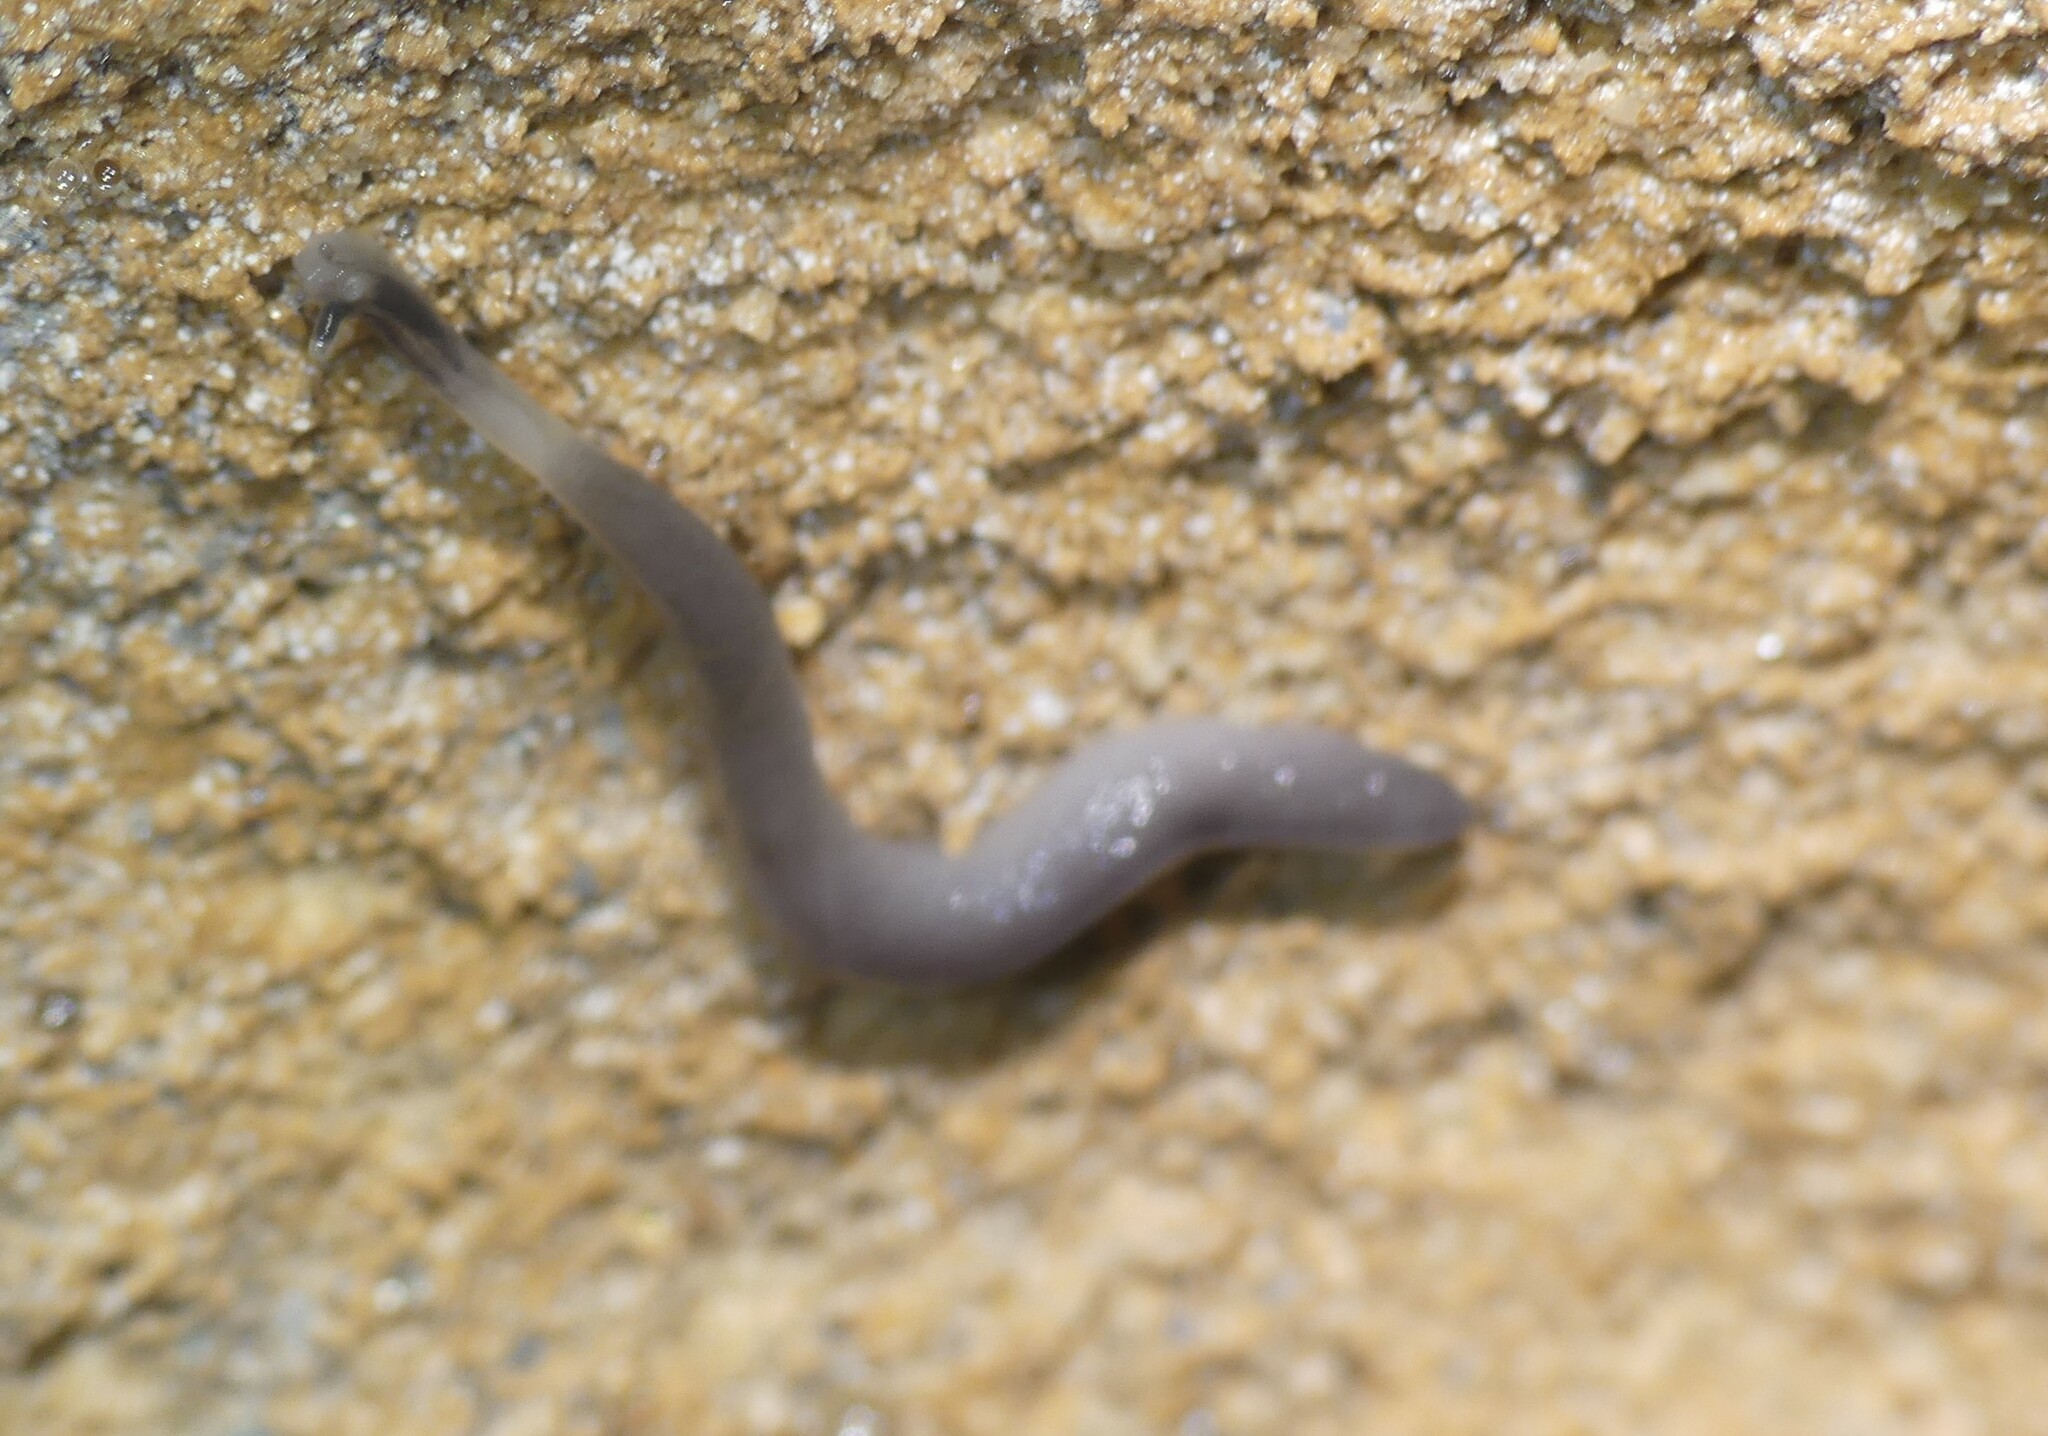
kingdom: Animalia
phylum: Mollusca
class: Gastropoda
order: Stylommatophora
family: Boettgerillidae
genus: Boettgerilla
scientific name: Boettgerilla pallens
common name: Worm slug
